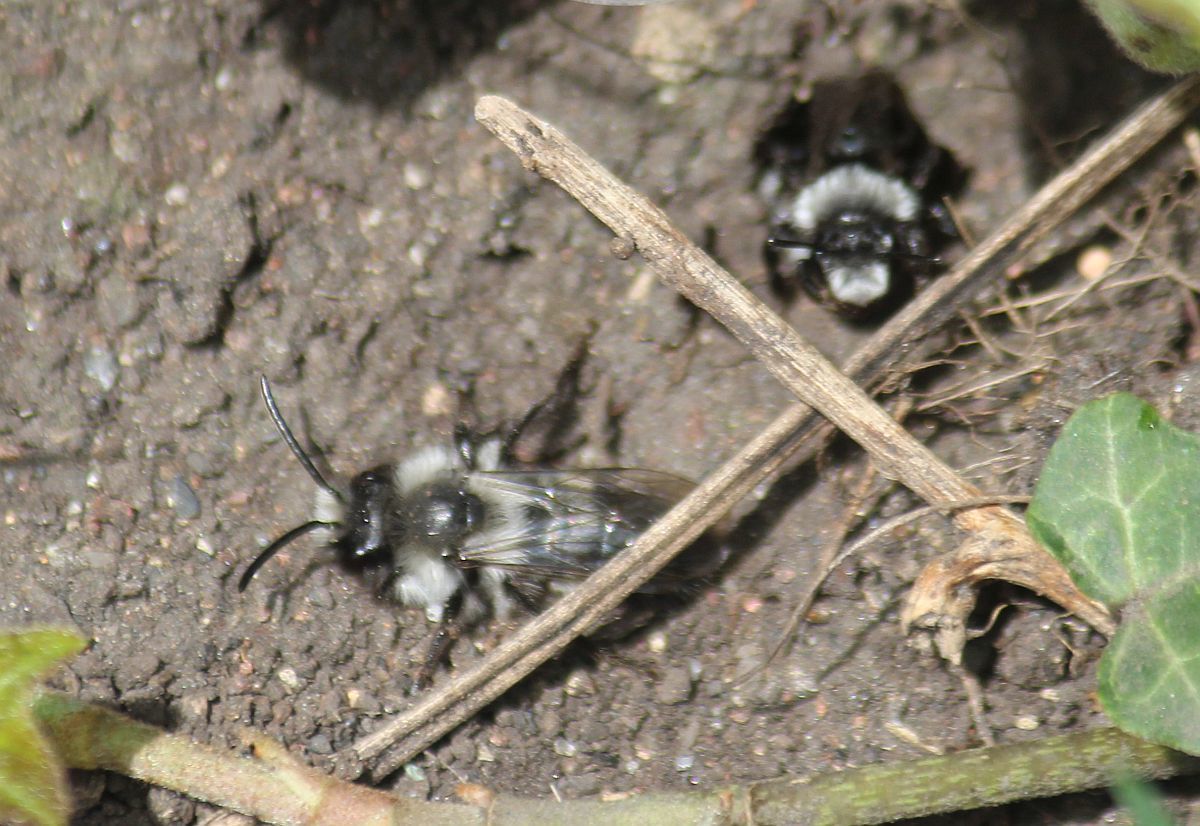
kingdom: Animalia
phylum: Arthropoda
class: Insecta
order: Hymenoptera
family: Andrenidae
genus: Andrena
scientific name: Andrena cineraria
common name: Ashy mining bee
